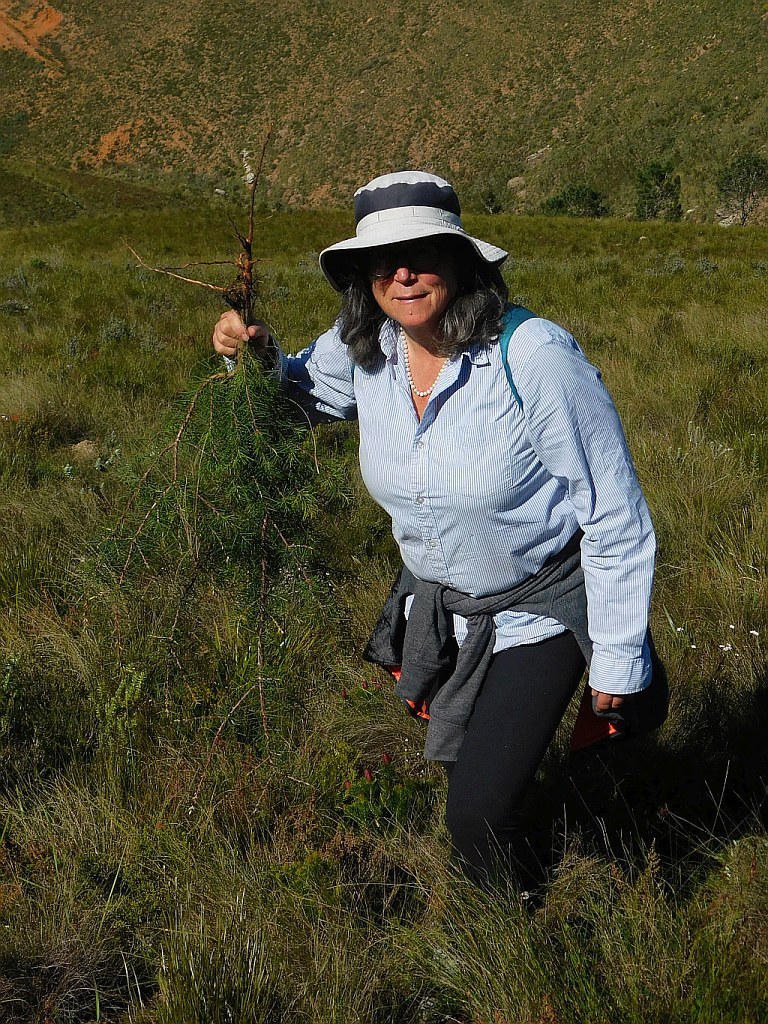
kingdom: Plantae
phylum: Tracheophyta
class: Magnoliopsida
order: Proteales
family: Proteaceae
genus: Hakea
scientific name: Hakea sericea
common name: Needle bush
